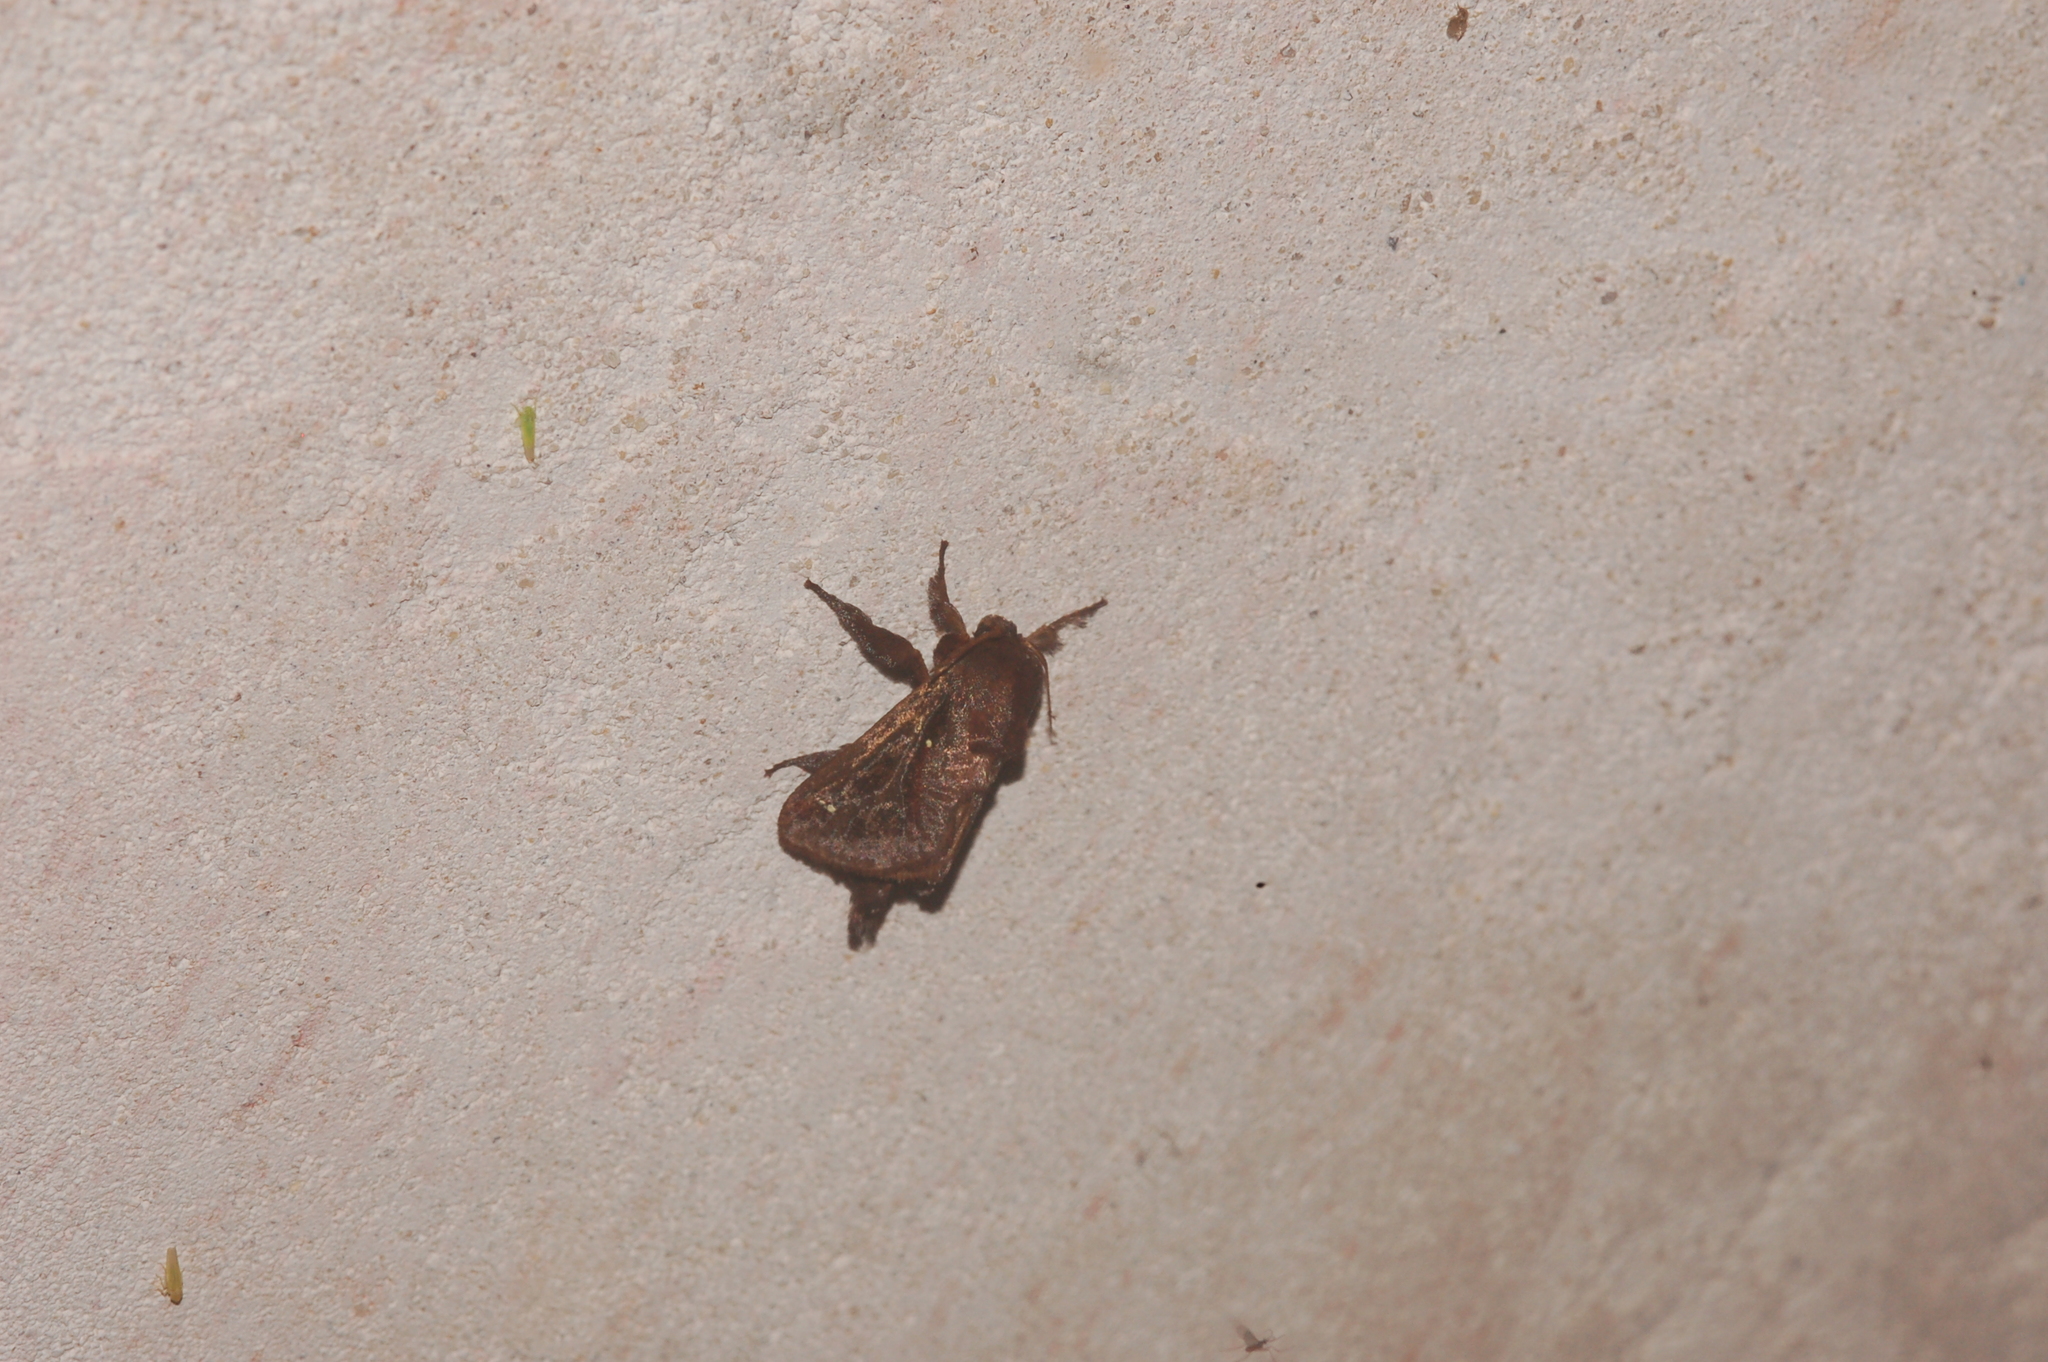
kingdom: Animalia
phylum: Arthropoda
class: Insecta
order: Lepidoptera
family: Limacodidae
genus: Acharia
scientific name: Acharia stimulea
